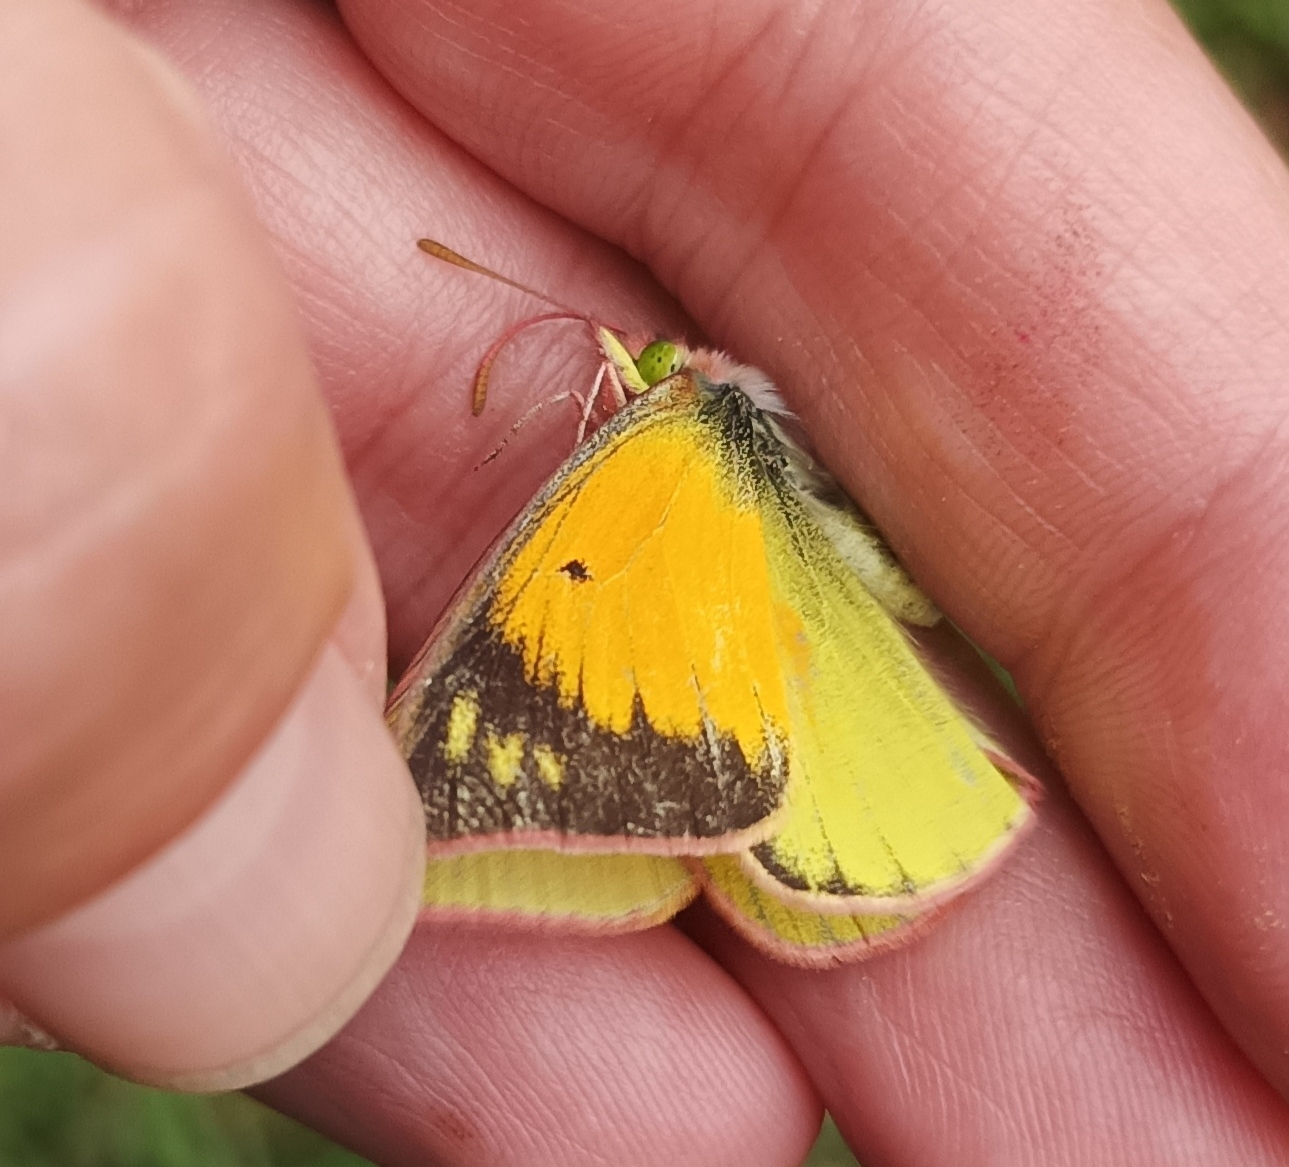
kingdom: Animalia
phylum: Arthropoda
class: Insecta
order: Lepidoptera
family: Pieridae
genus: Colias
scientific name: Colias dimera
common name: Dimera sulphur
